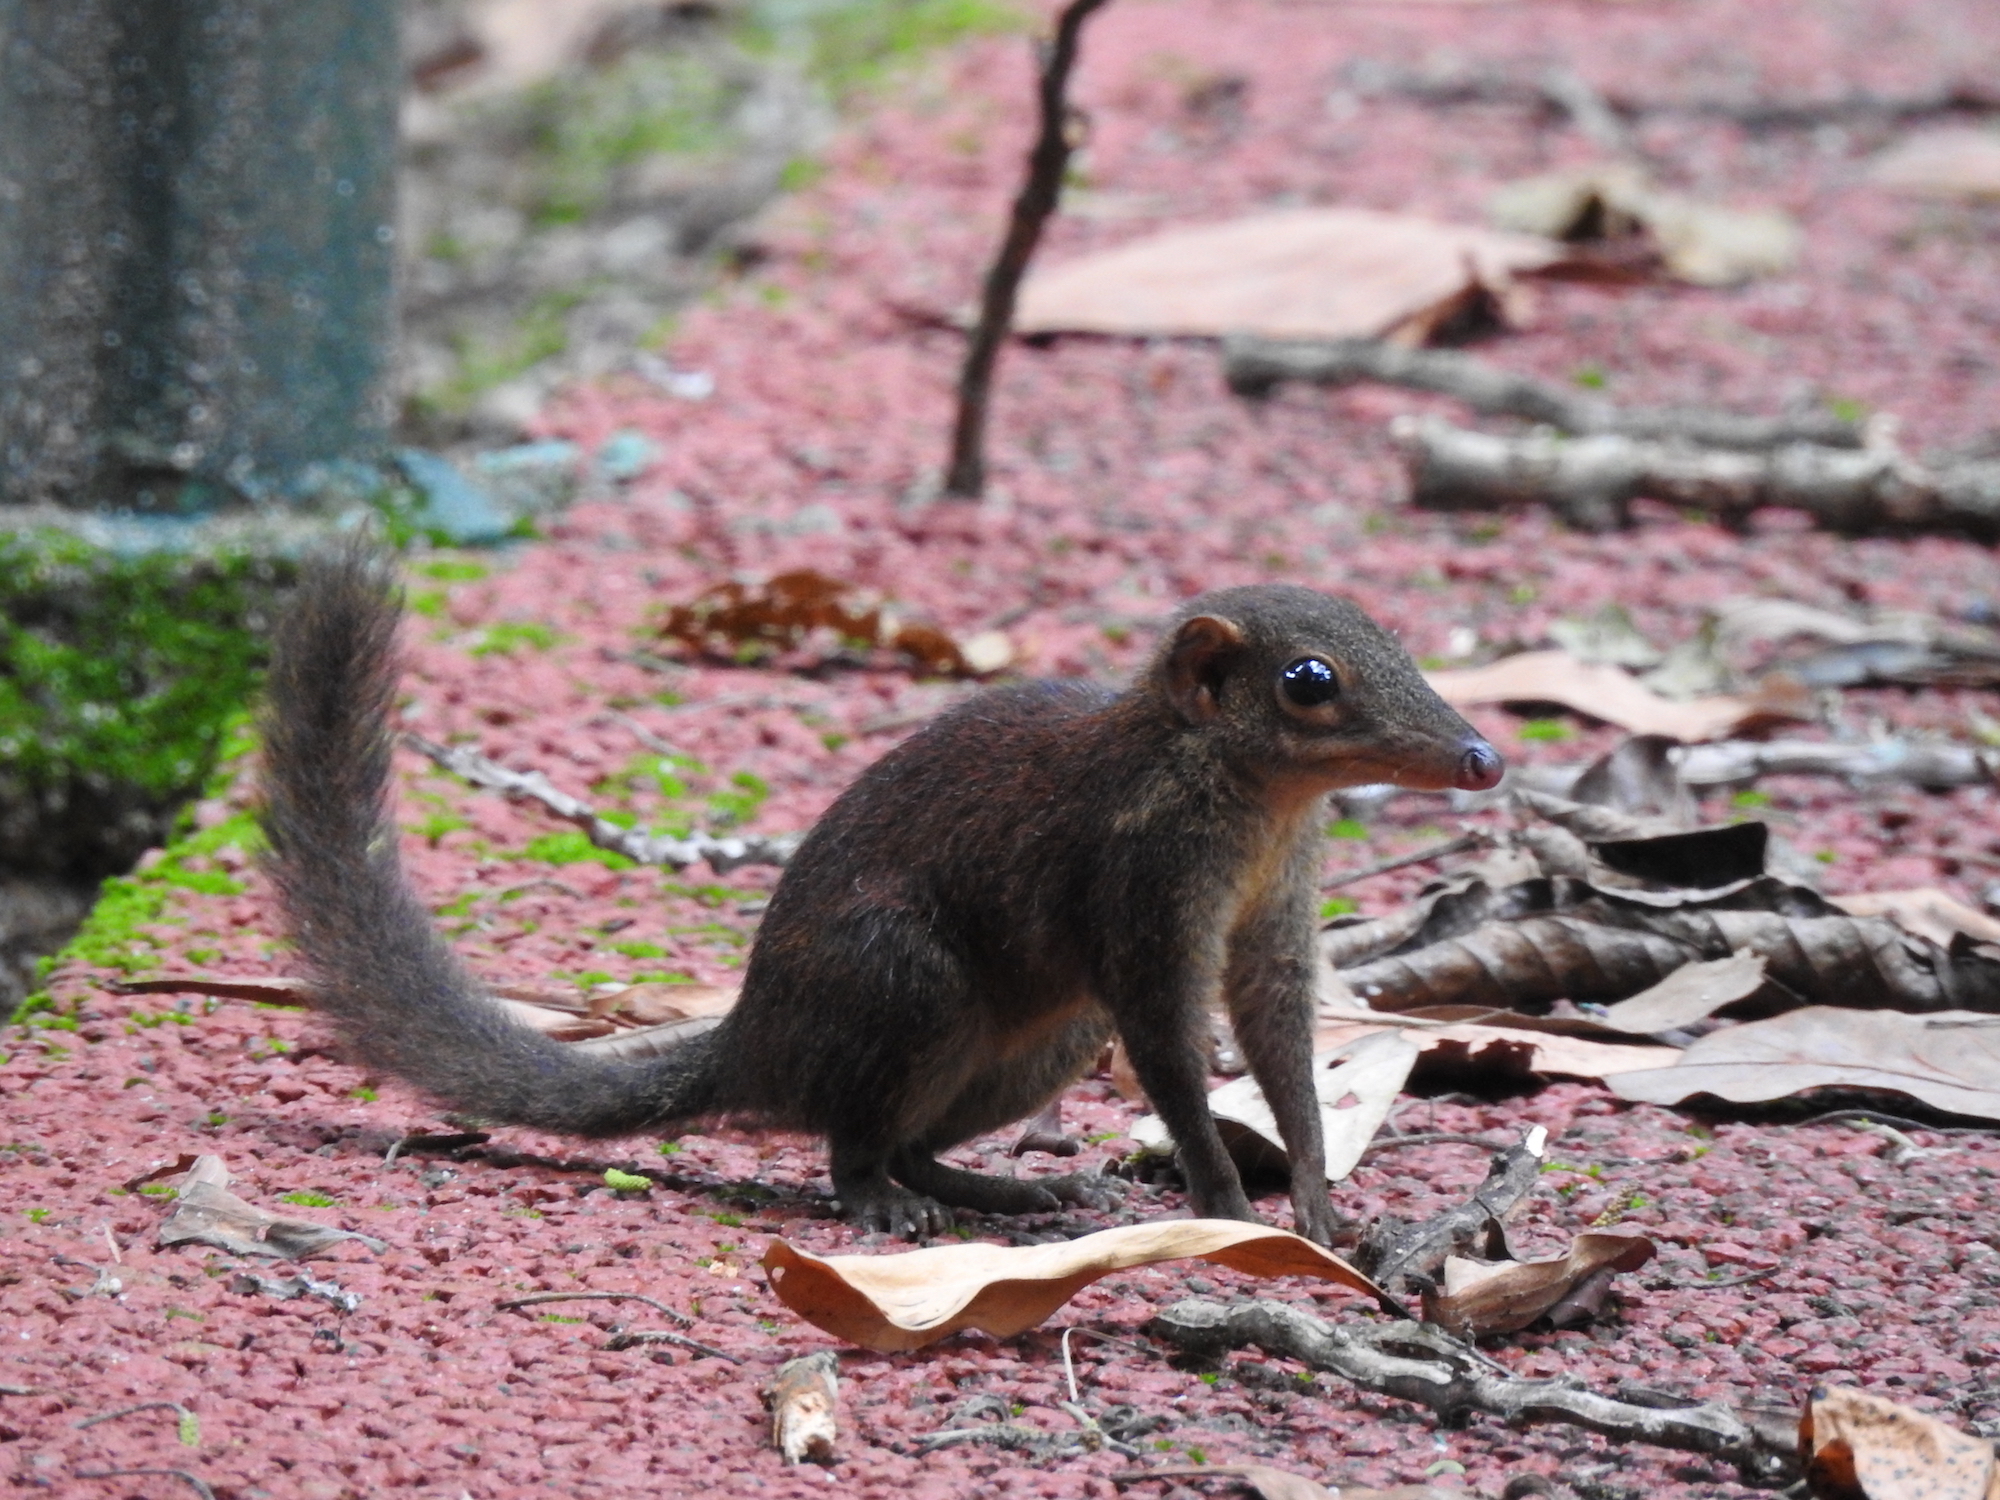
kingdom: Animalia
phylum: Chordata
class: Mammalia
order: Scandentia
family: Tupaiidae
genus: Tupaia
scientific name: Tupaia glis
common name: Common treeshrew
